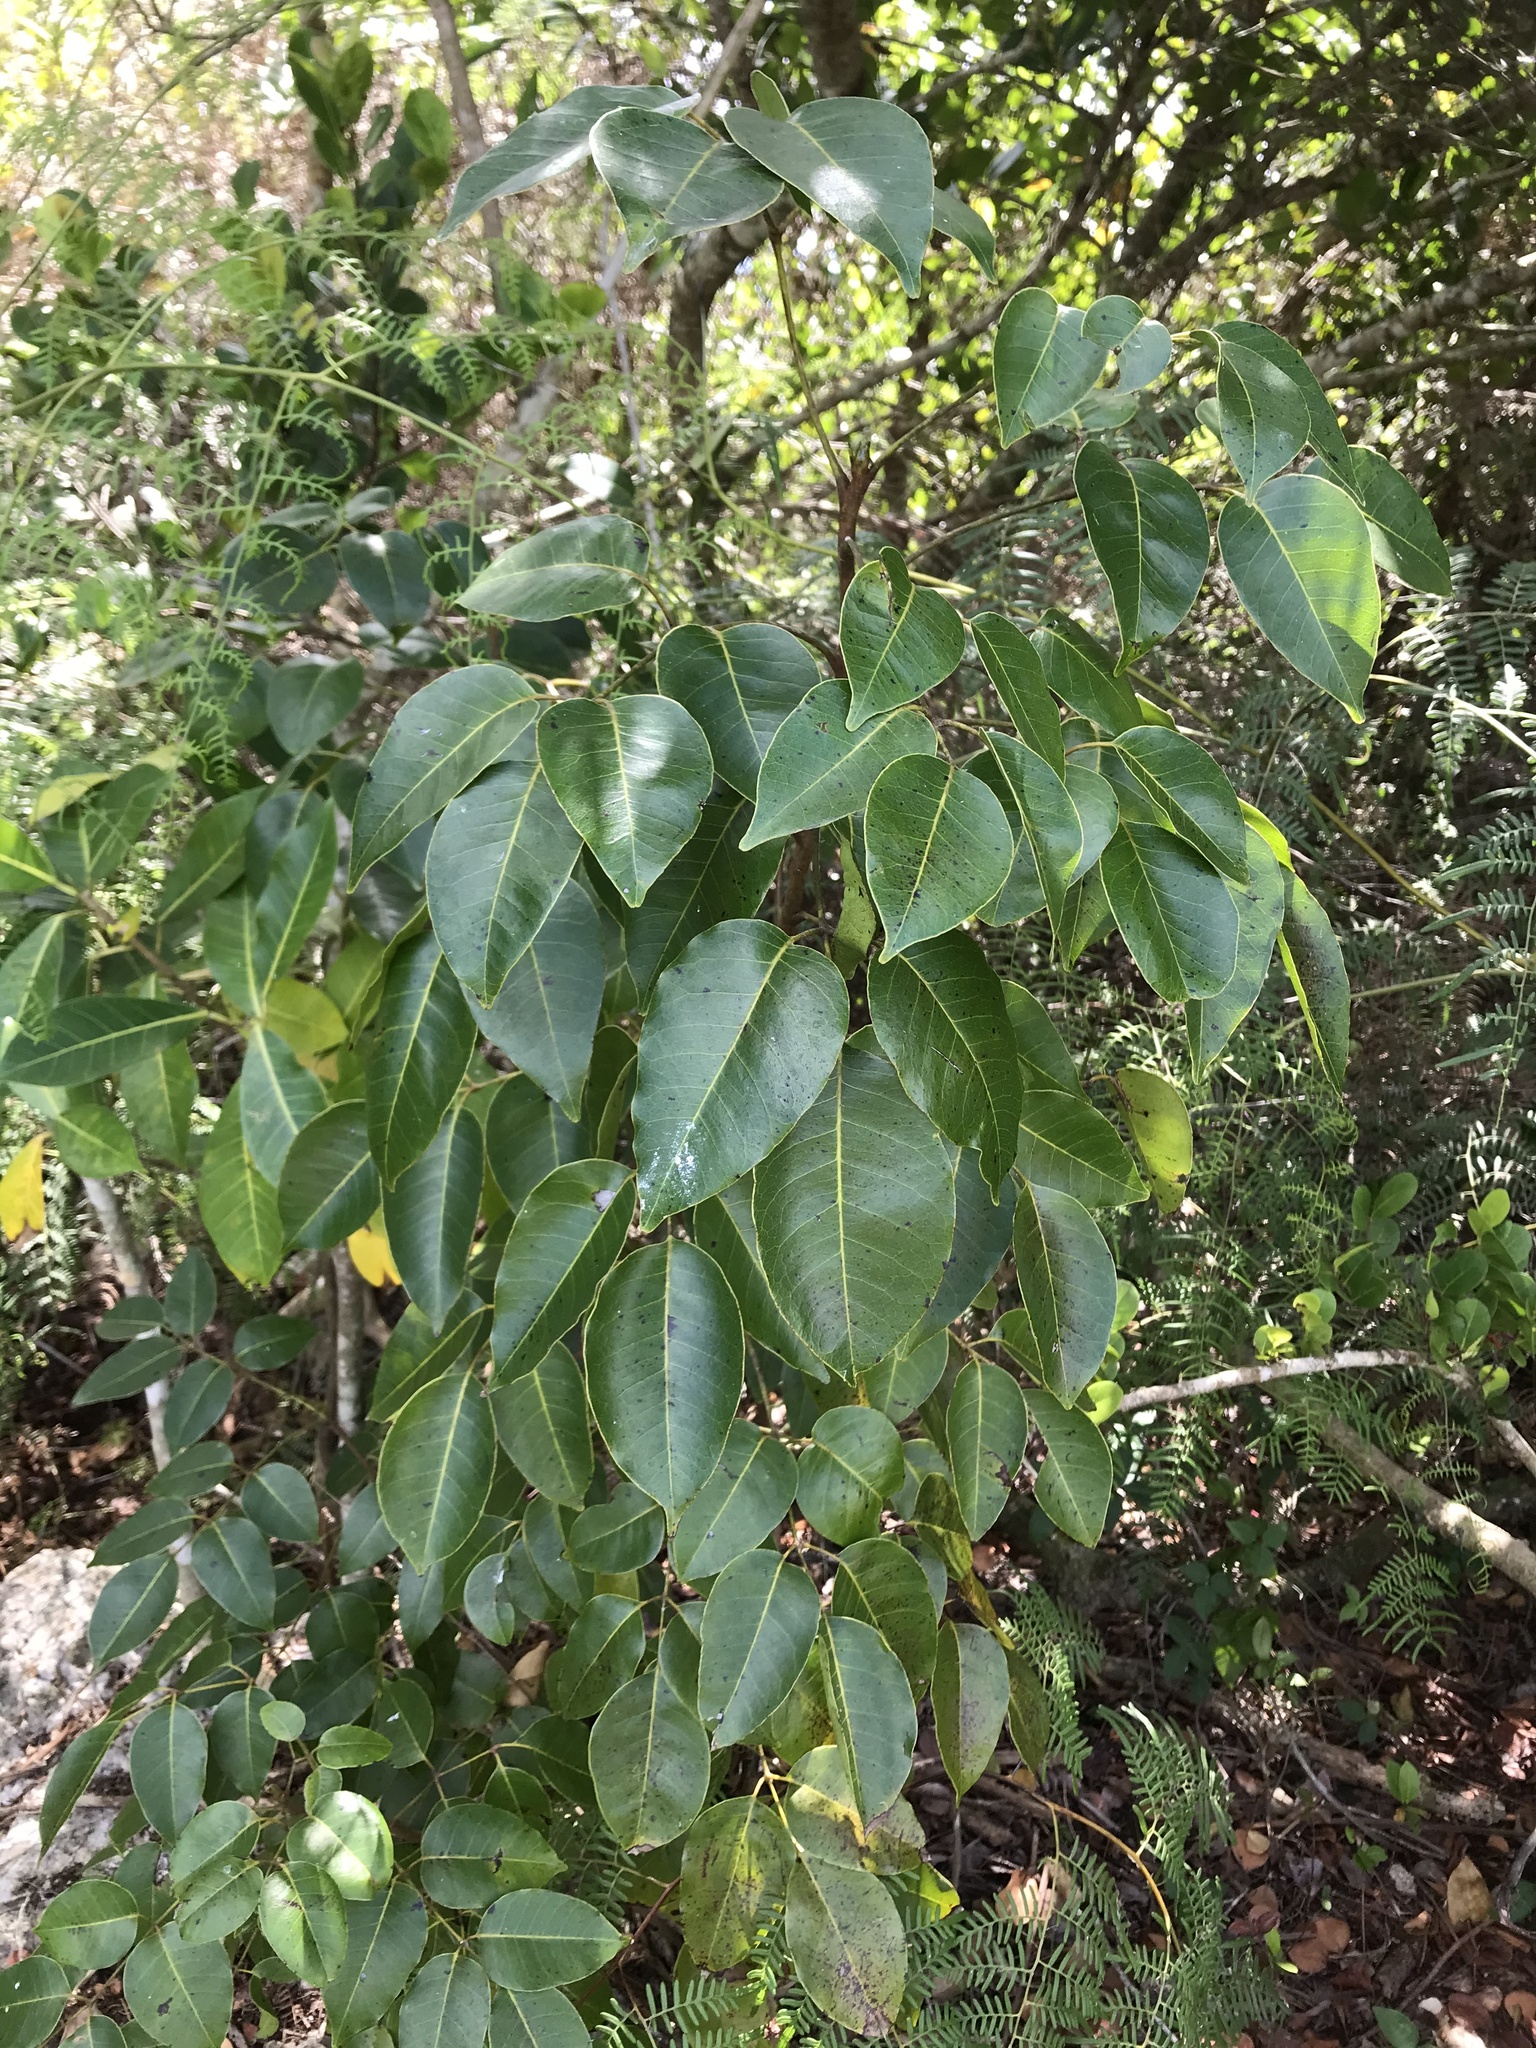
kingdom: Plantae
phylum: Tracheophyta
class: Magnoliopsida
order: Sapindales
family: Anacardiaceae
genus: Metopium
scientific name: Metopium toxiferum
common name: Florida poisontree
